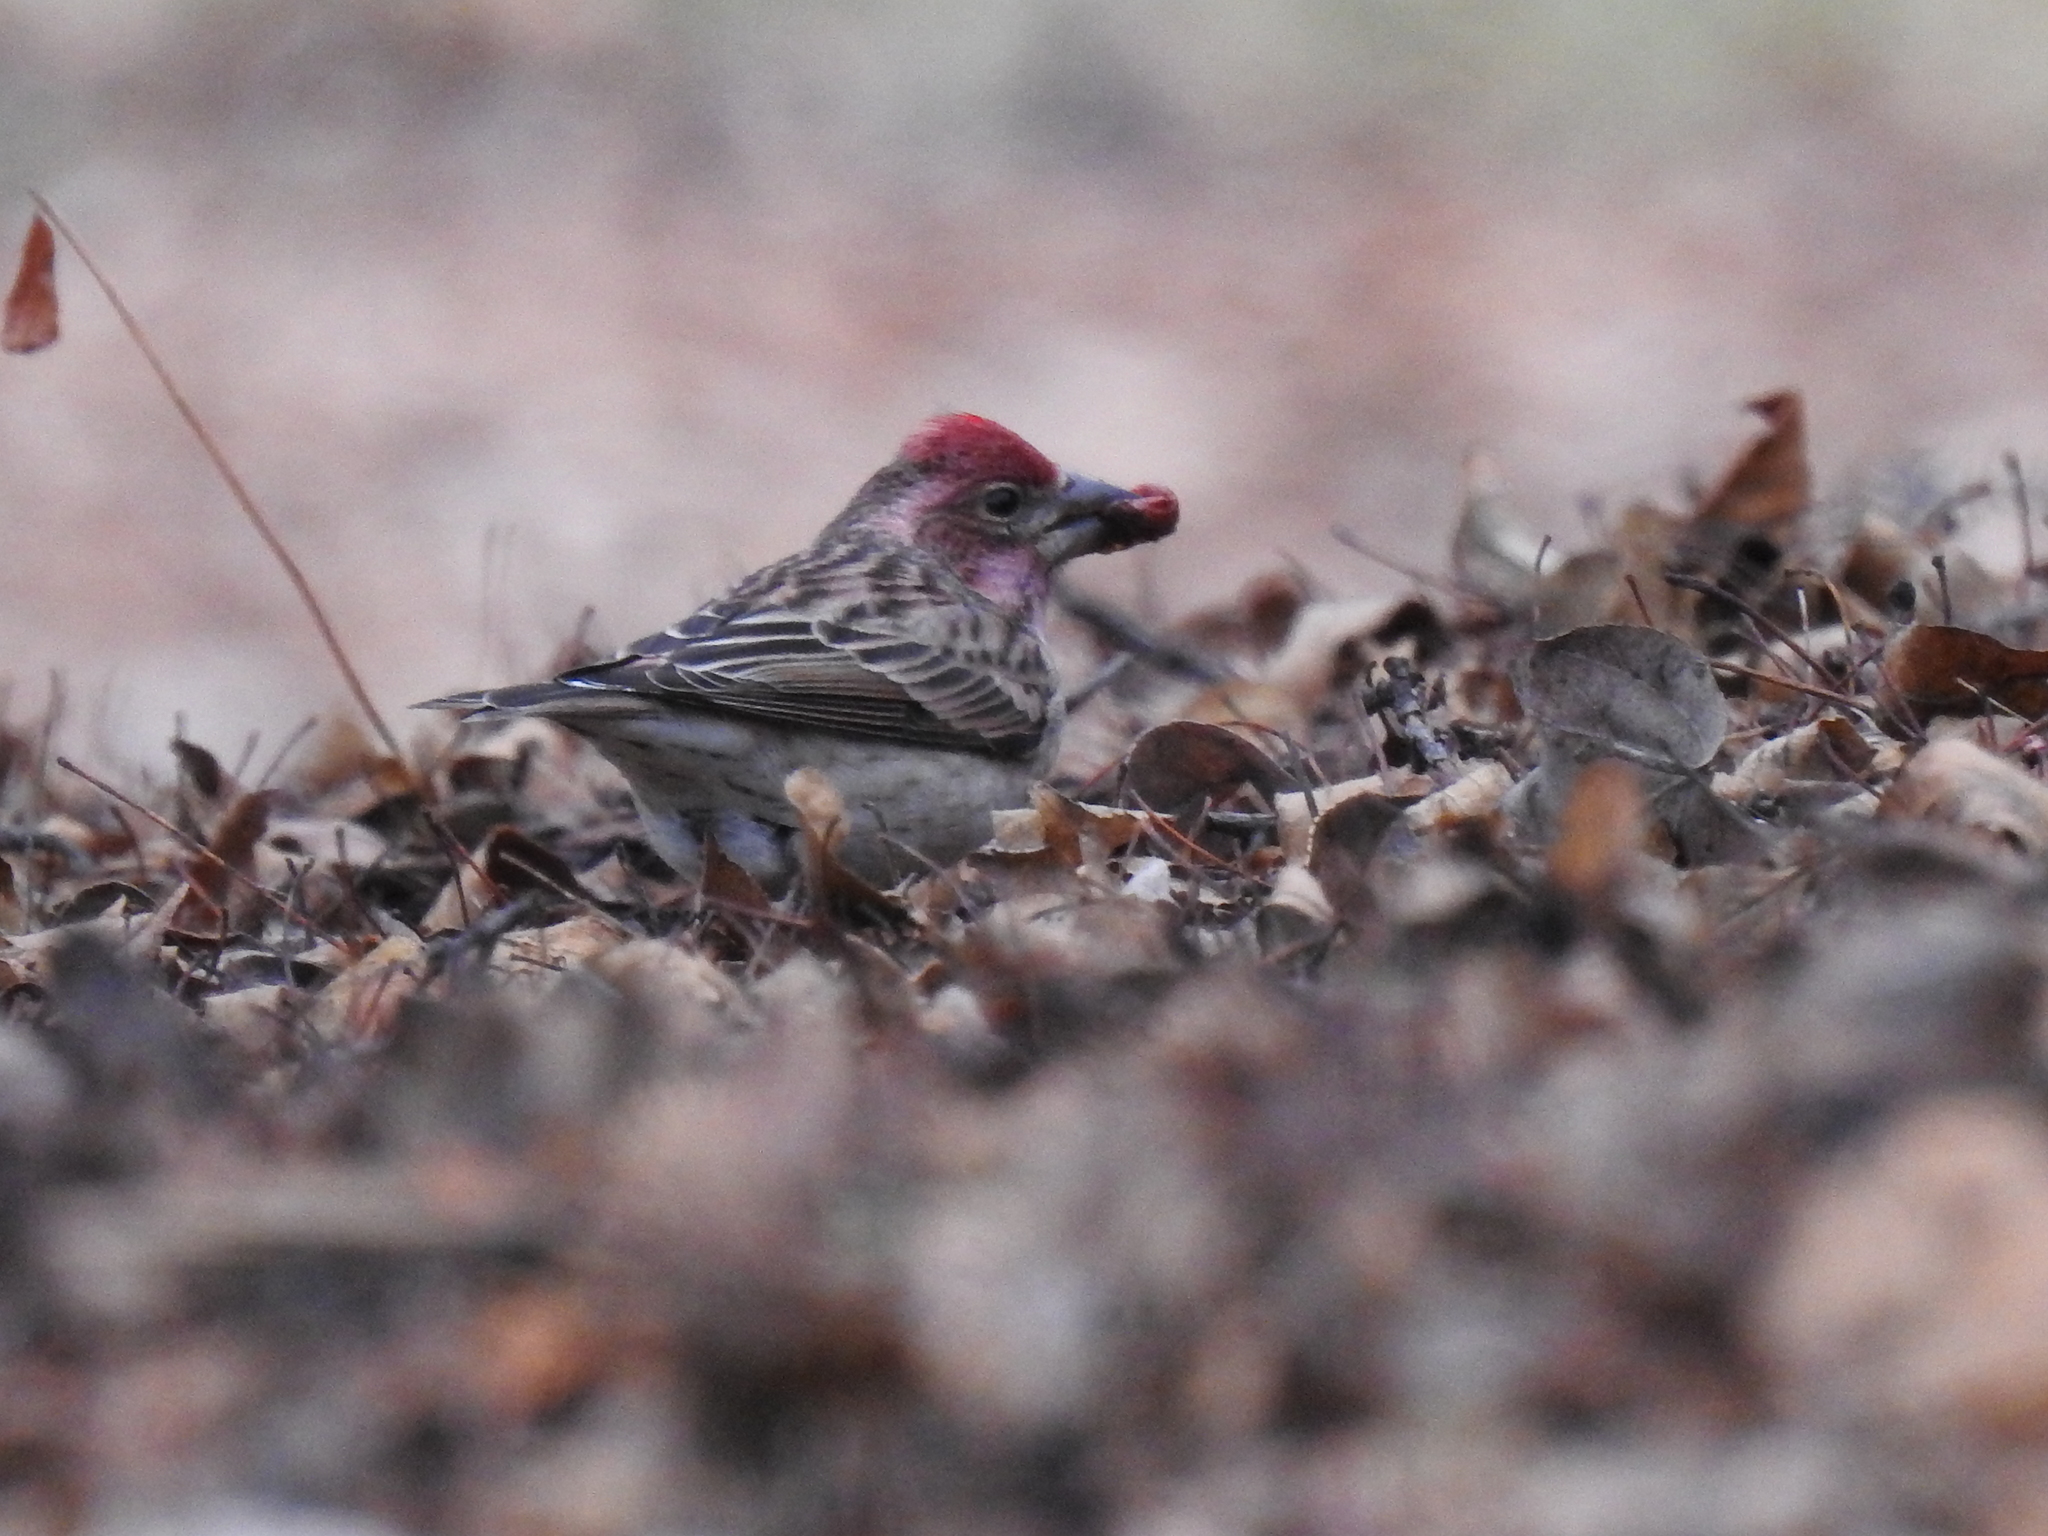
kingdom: Animalia
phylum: Chordata
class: Aves
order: Passeriformes
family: Fringillidae
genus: Haemorhous
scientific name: Haemorhous cassinii
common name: Cassin's finch
